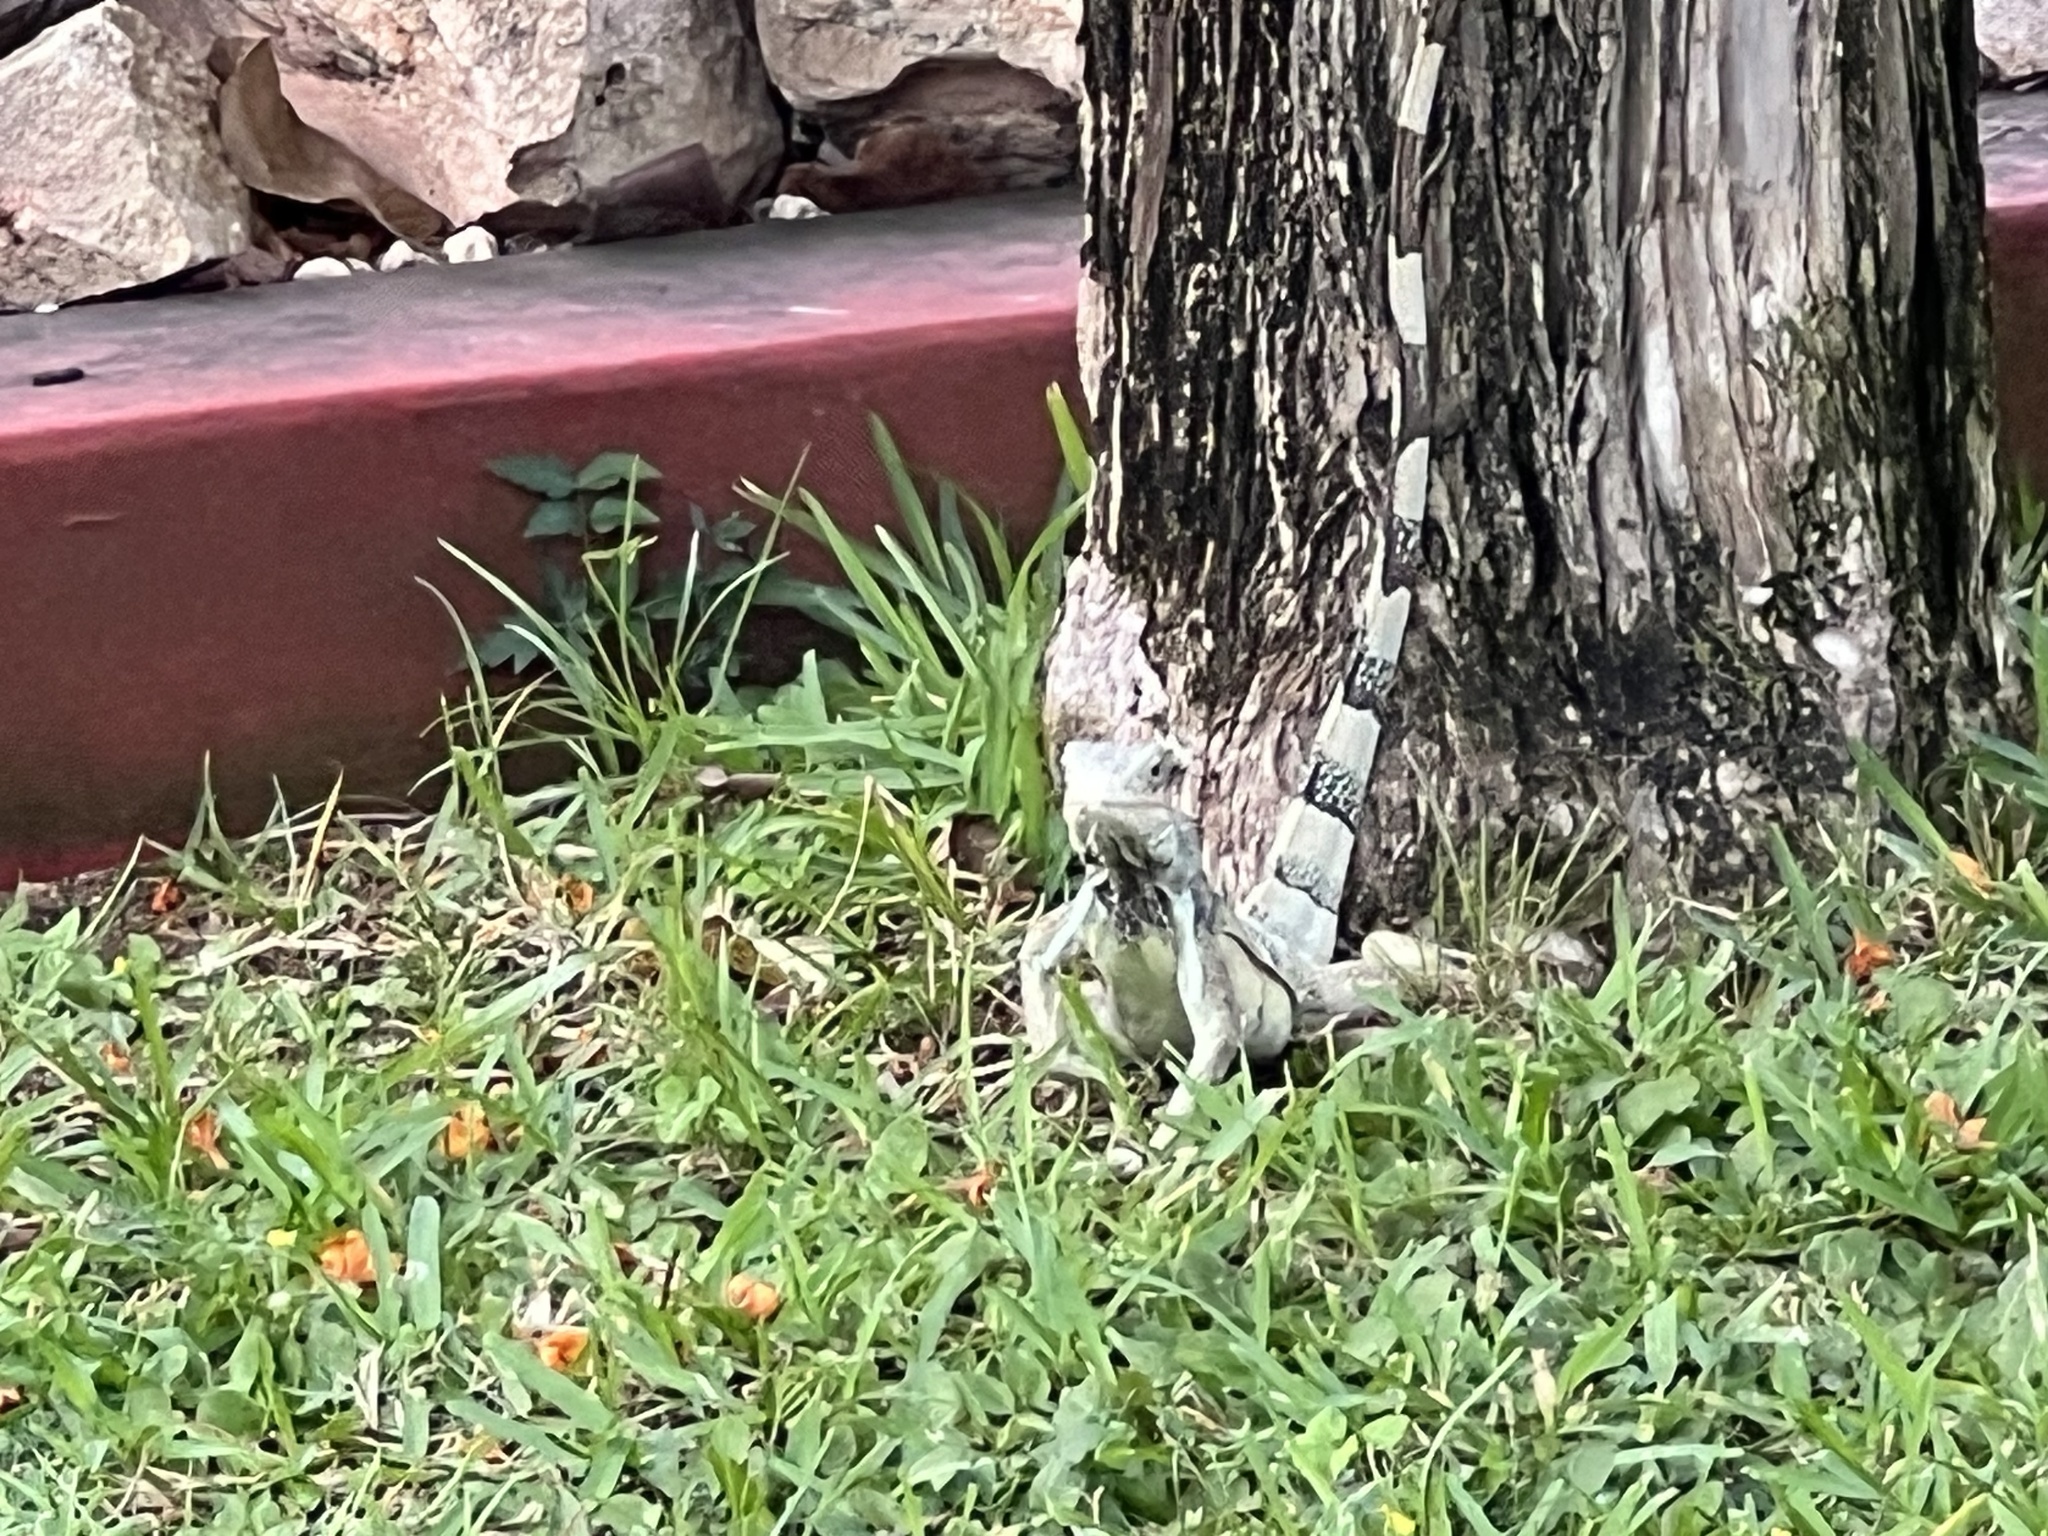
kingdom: Animalia
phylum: Chordata
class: Squamata
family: Iguanidae
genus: Iguana
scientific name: Iguana iguana
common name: Green iguana
